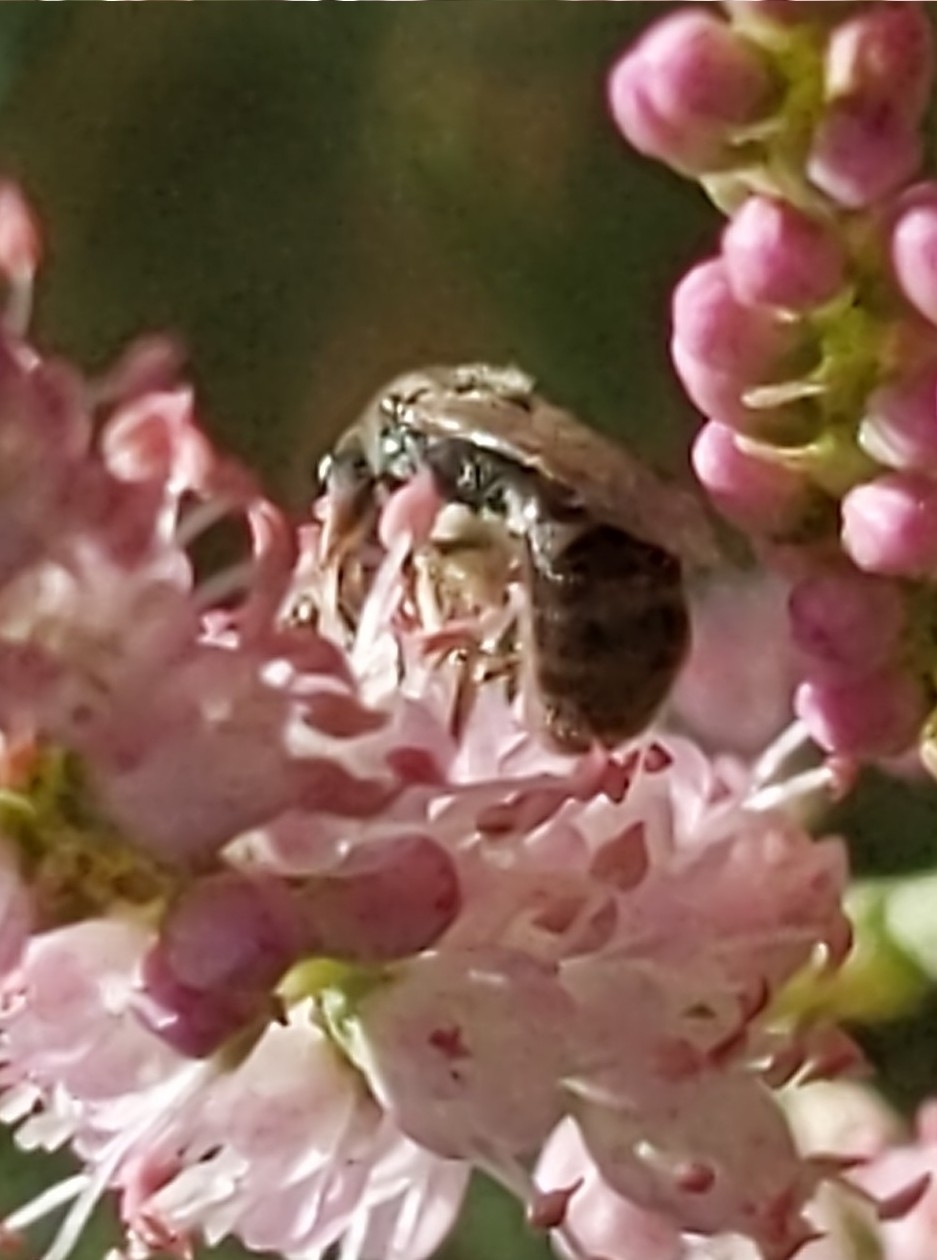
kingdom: Animalia
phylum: Arthropoda
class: Insecta
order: Hymenoptera
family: Halictidae
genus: Dialictus
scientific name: Dialictus
